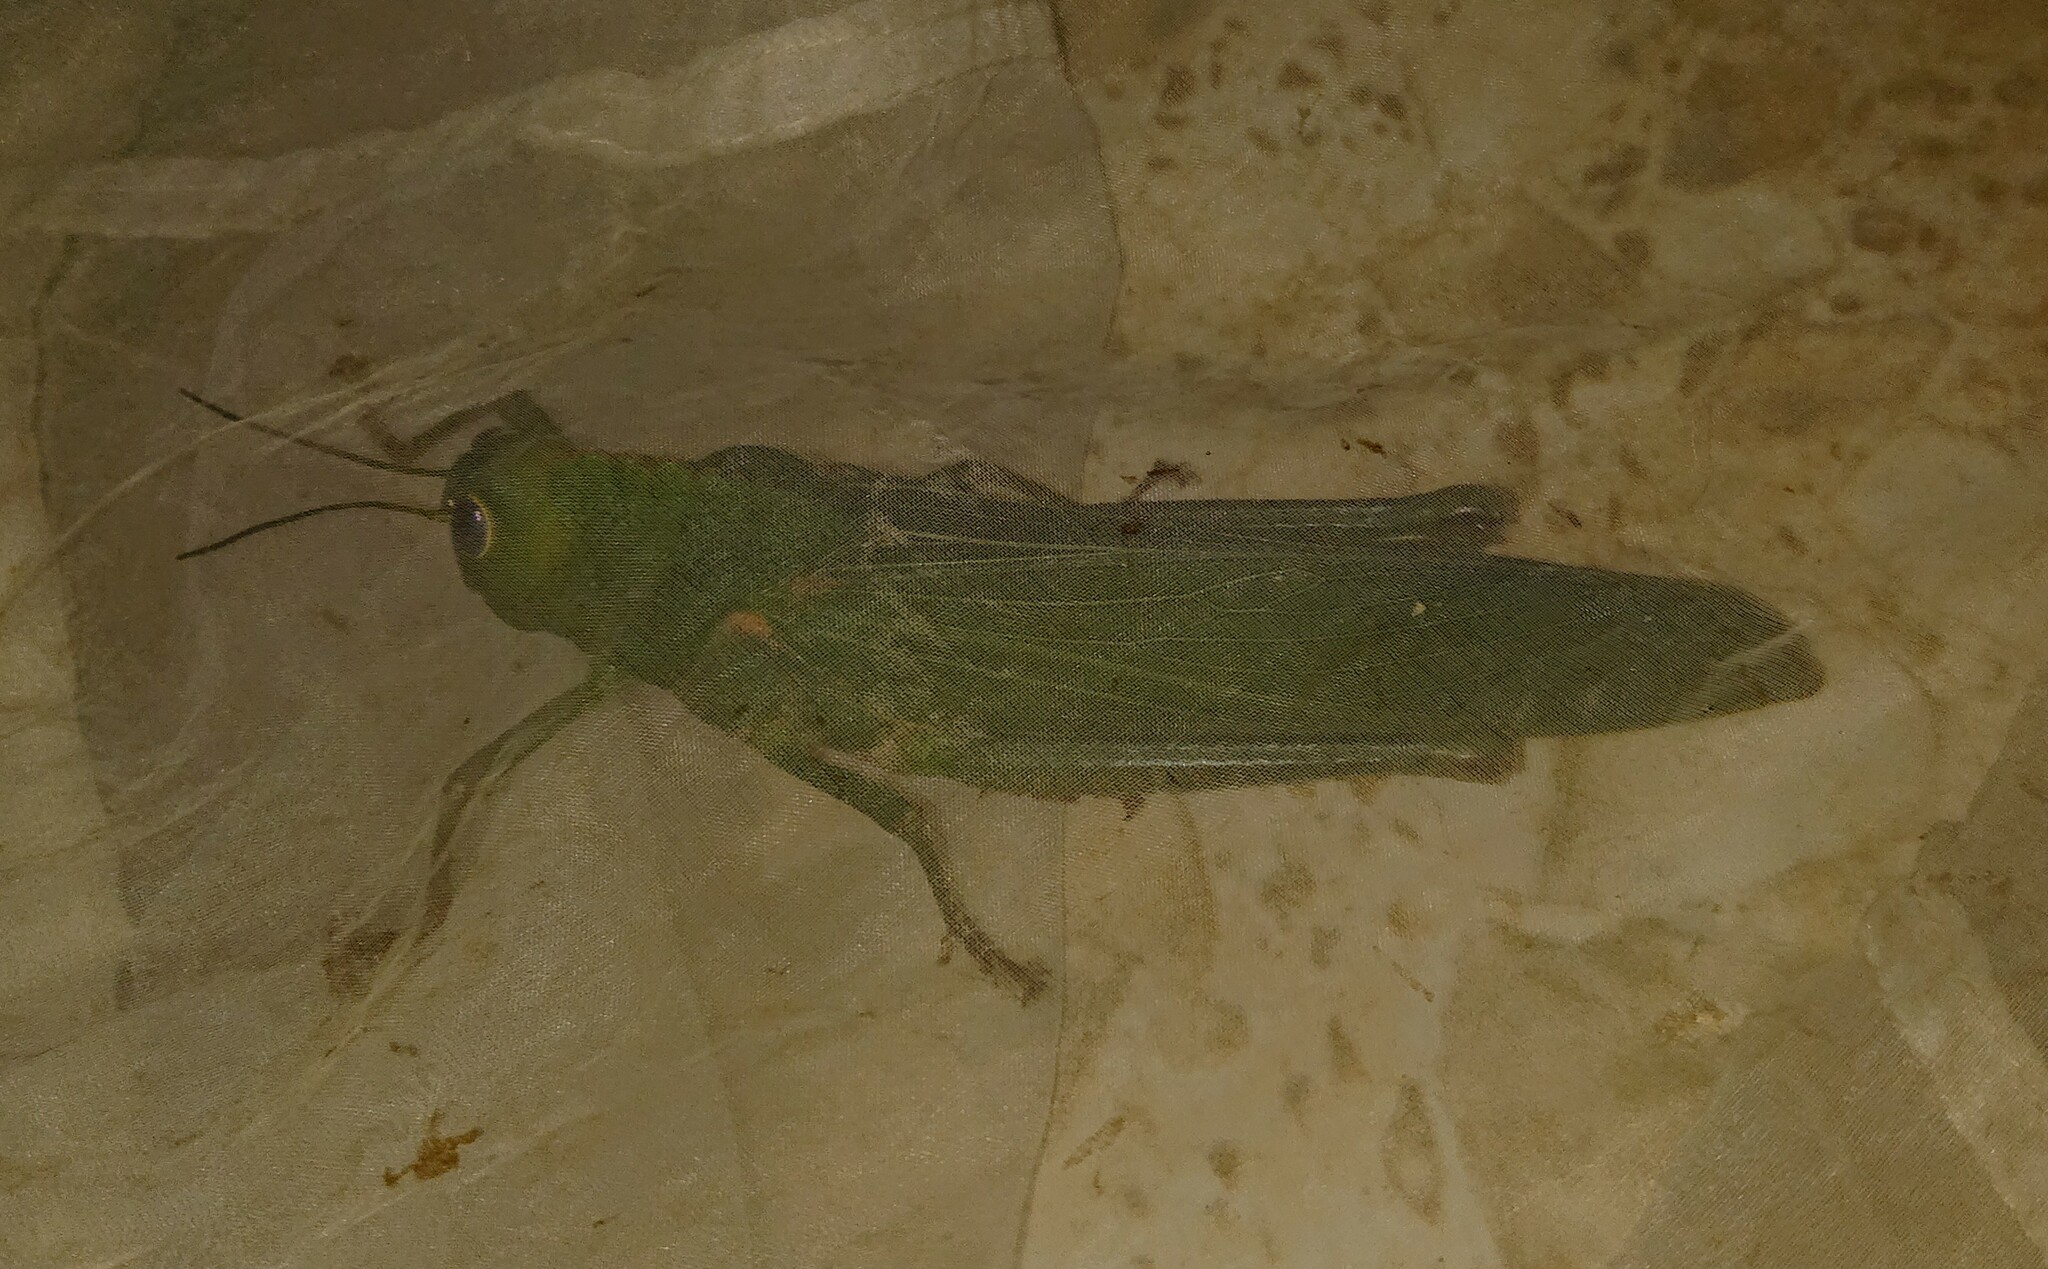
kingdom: Animalia
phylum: Arthropoda
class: Insecta
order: Orthoptera
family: Romaleidae
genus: Titanacris
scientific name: Titanacris humboldtii
